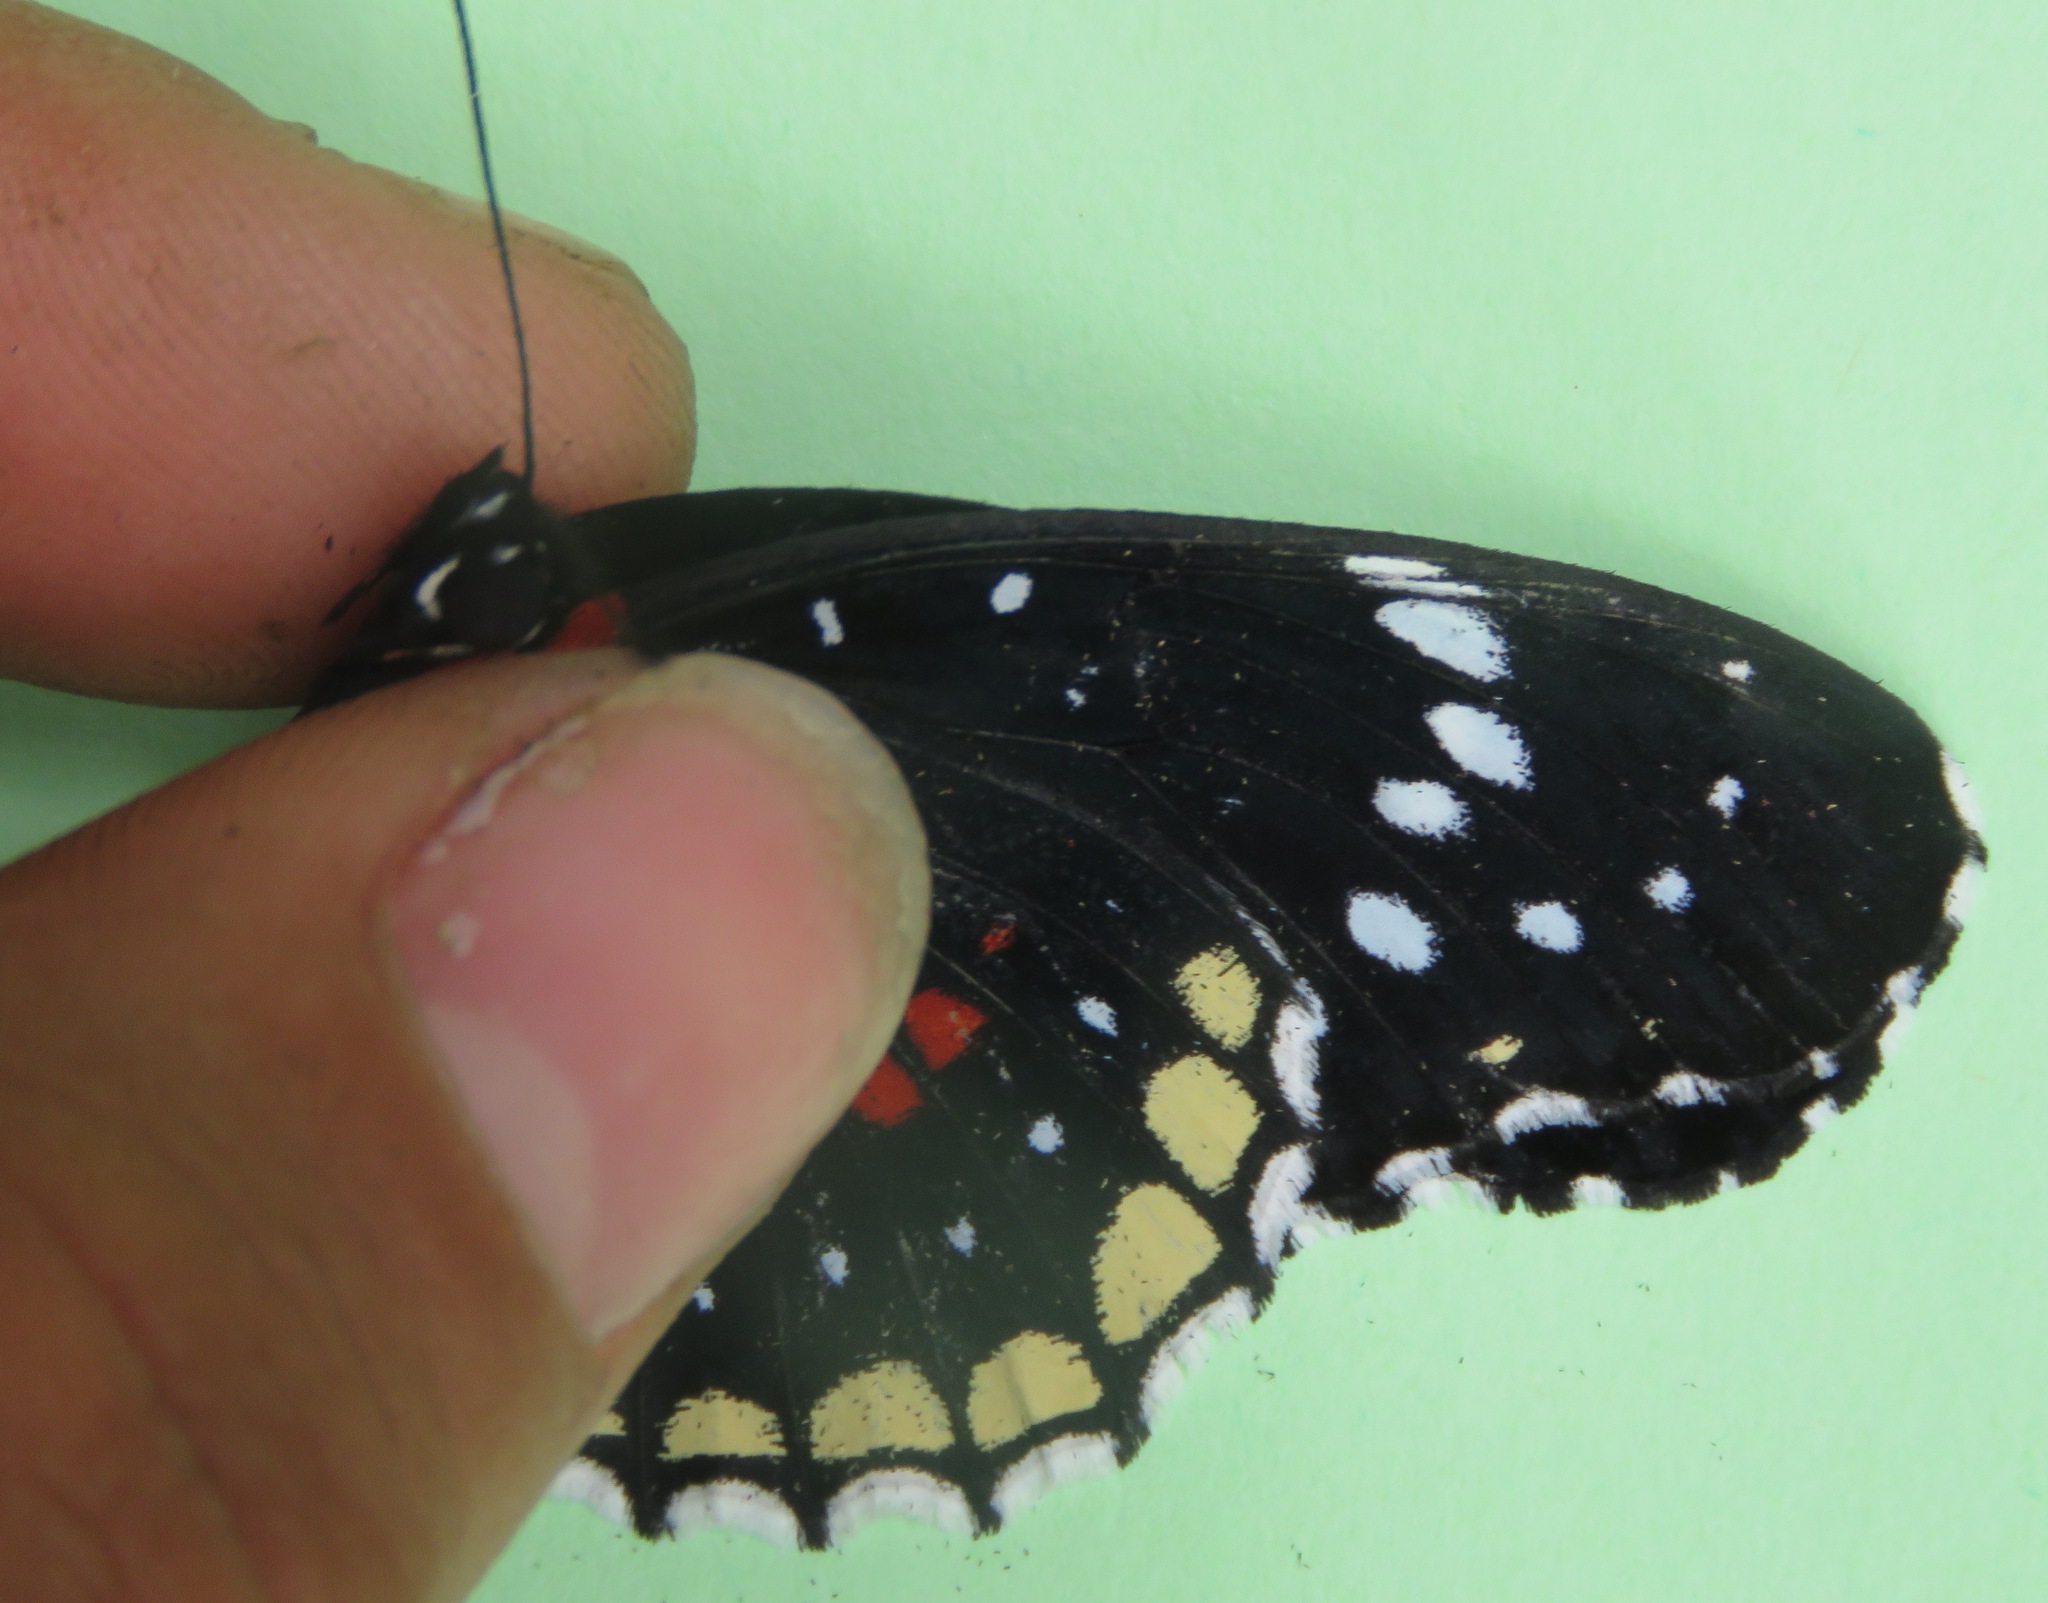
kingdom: Animalia
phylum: Arthropoda
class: Insecta
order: Lepidoptera
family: Nymphalidae
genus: Chlosyne
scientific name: Chlosyne hippodrome
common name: Simple patch
